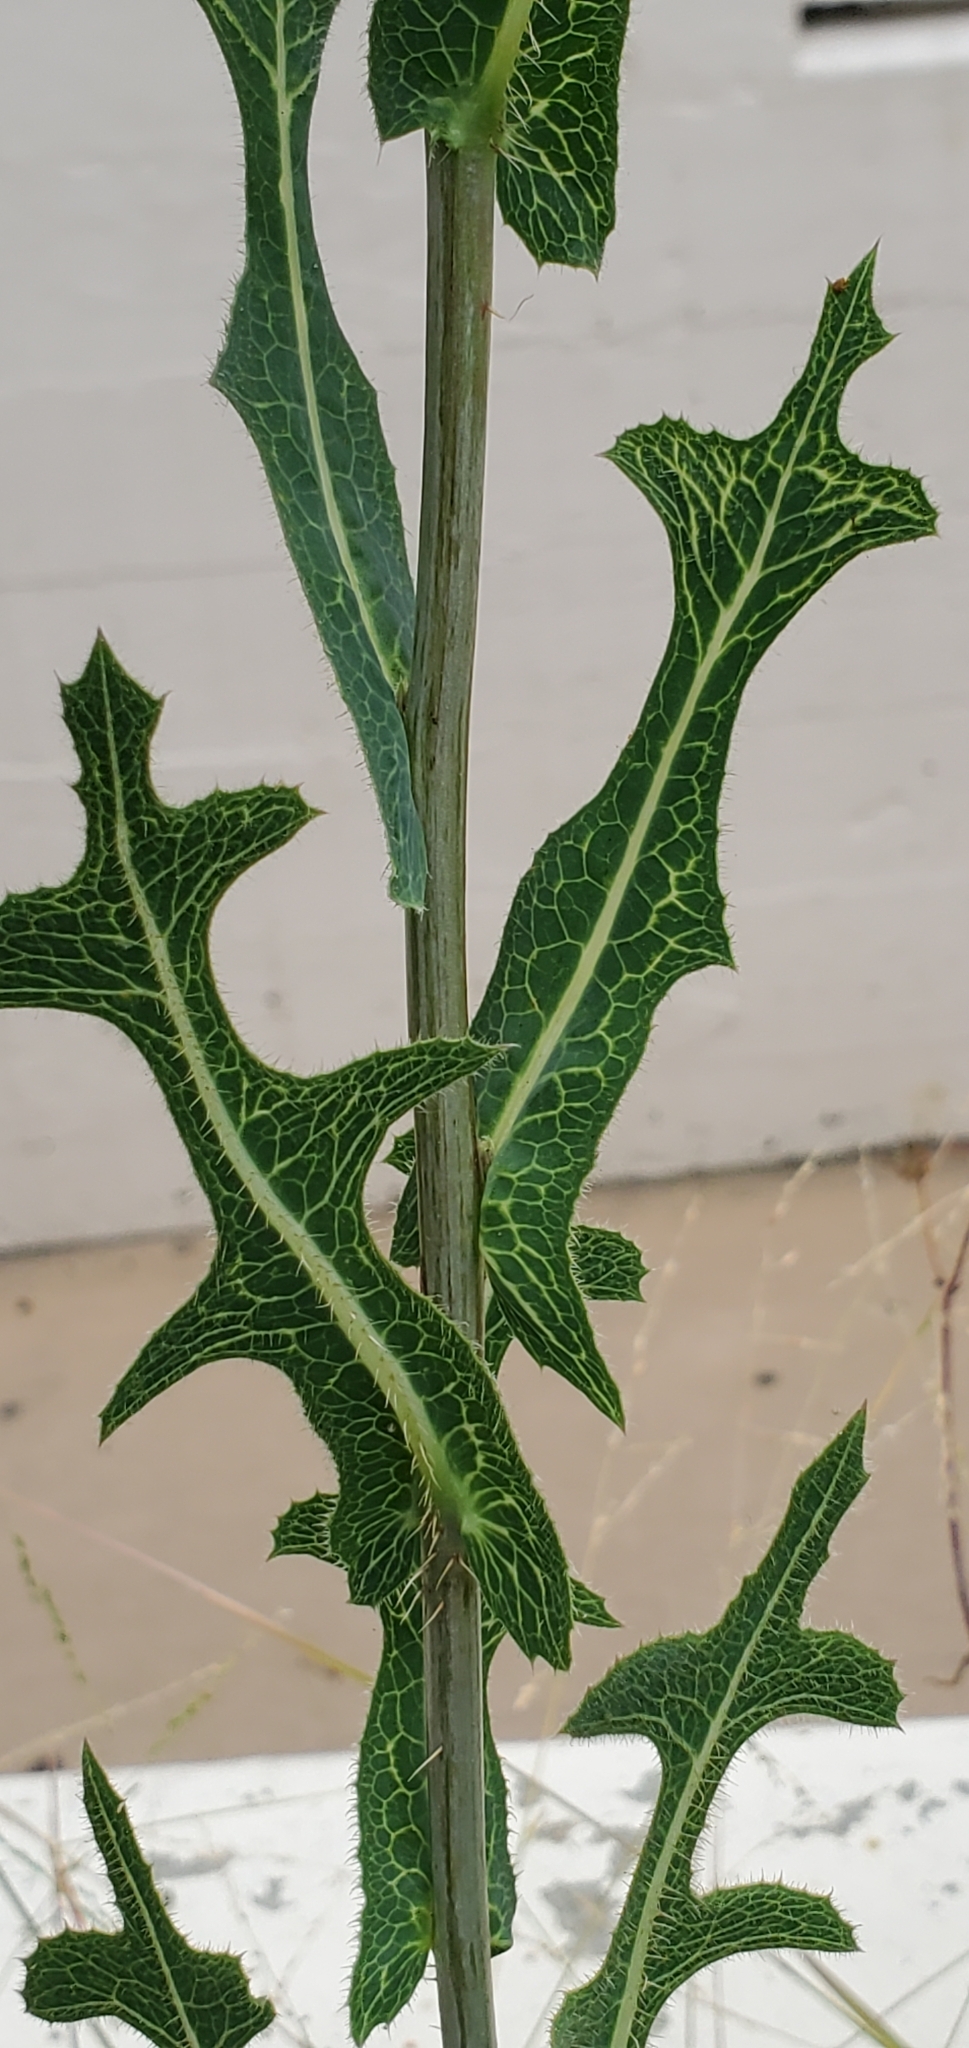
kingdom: Plantae
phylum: Tracheophyta
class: Magnoliopsida
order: Asterales
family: Asteraceae
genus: Lactuca
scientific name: Lactuca serriola
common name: Prickly lettuce
